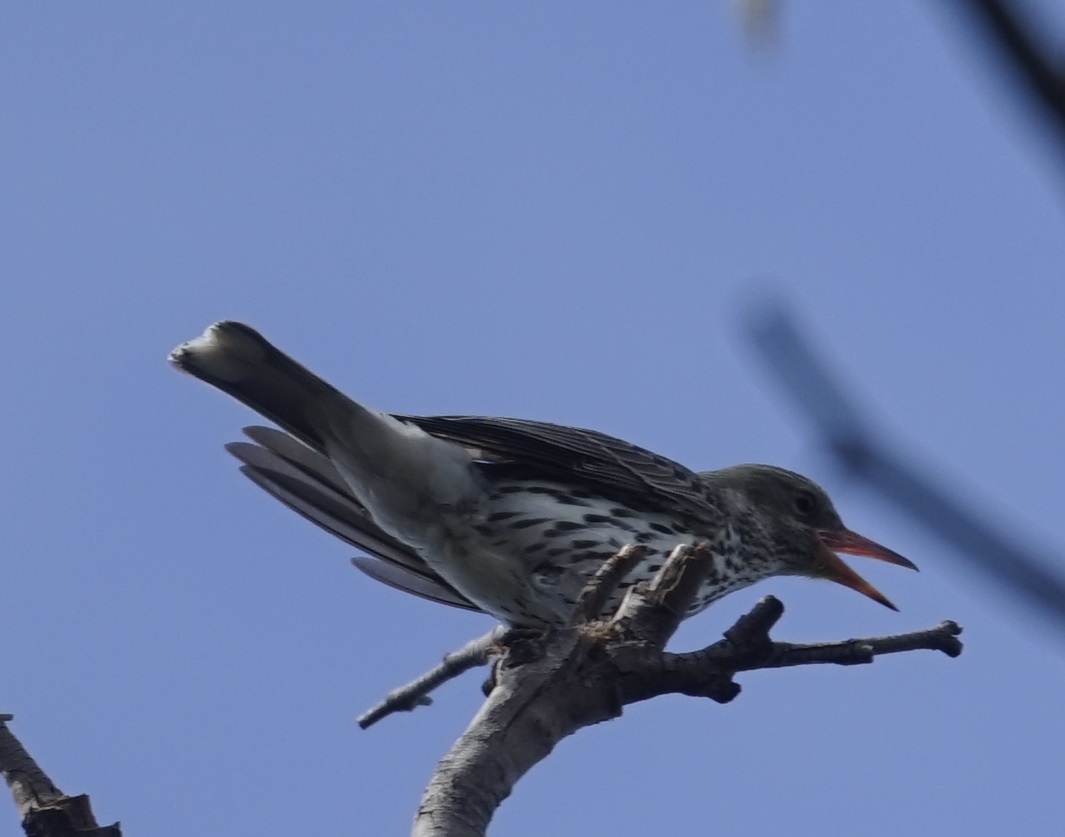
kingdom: Animalia
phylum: Chordata
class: Aves
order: Passeriformes
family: Oriolidae
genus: Oriolus
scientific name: Oriolus sagittatus
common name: Olive-backed oriole
